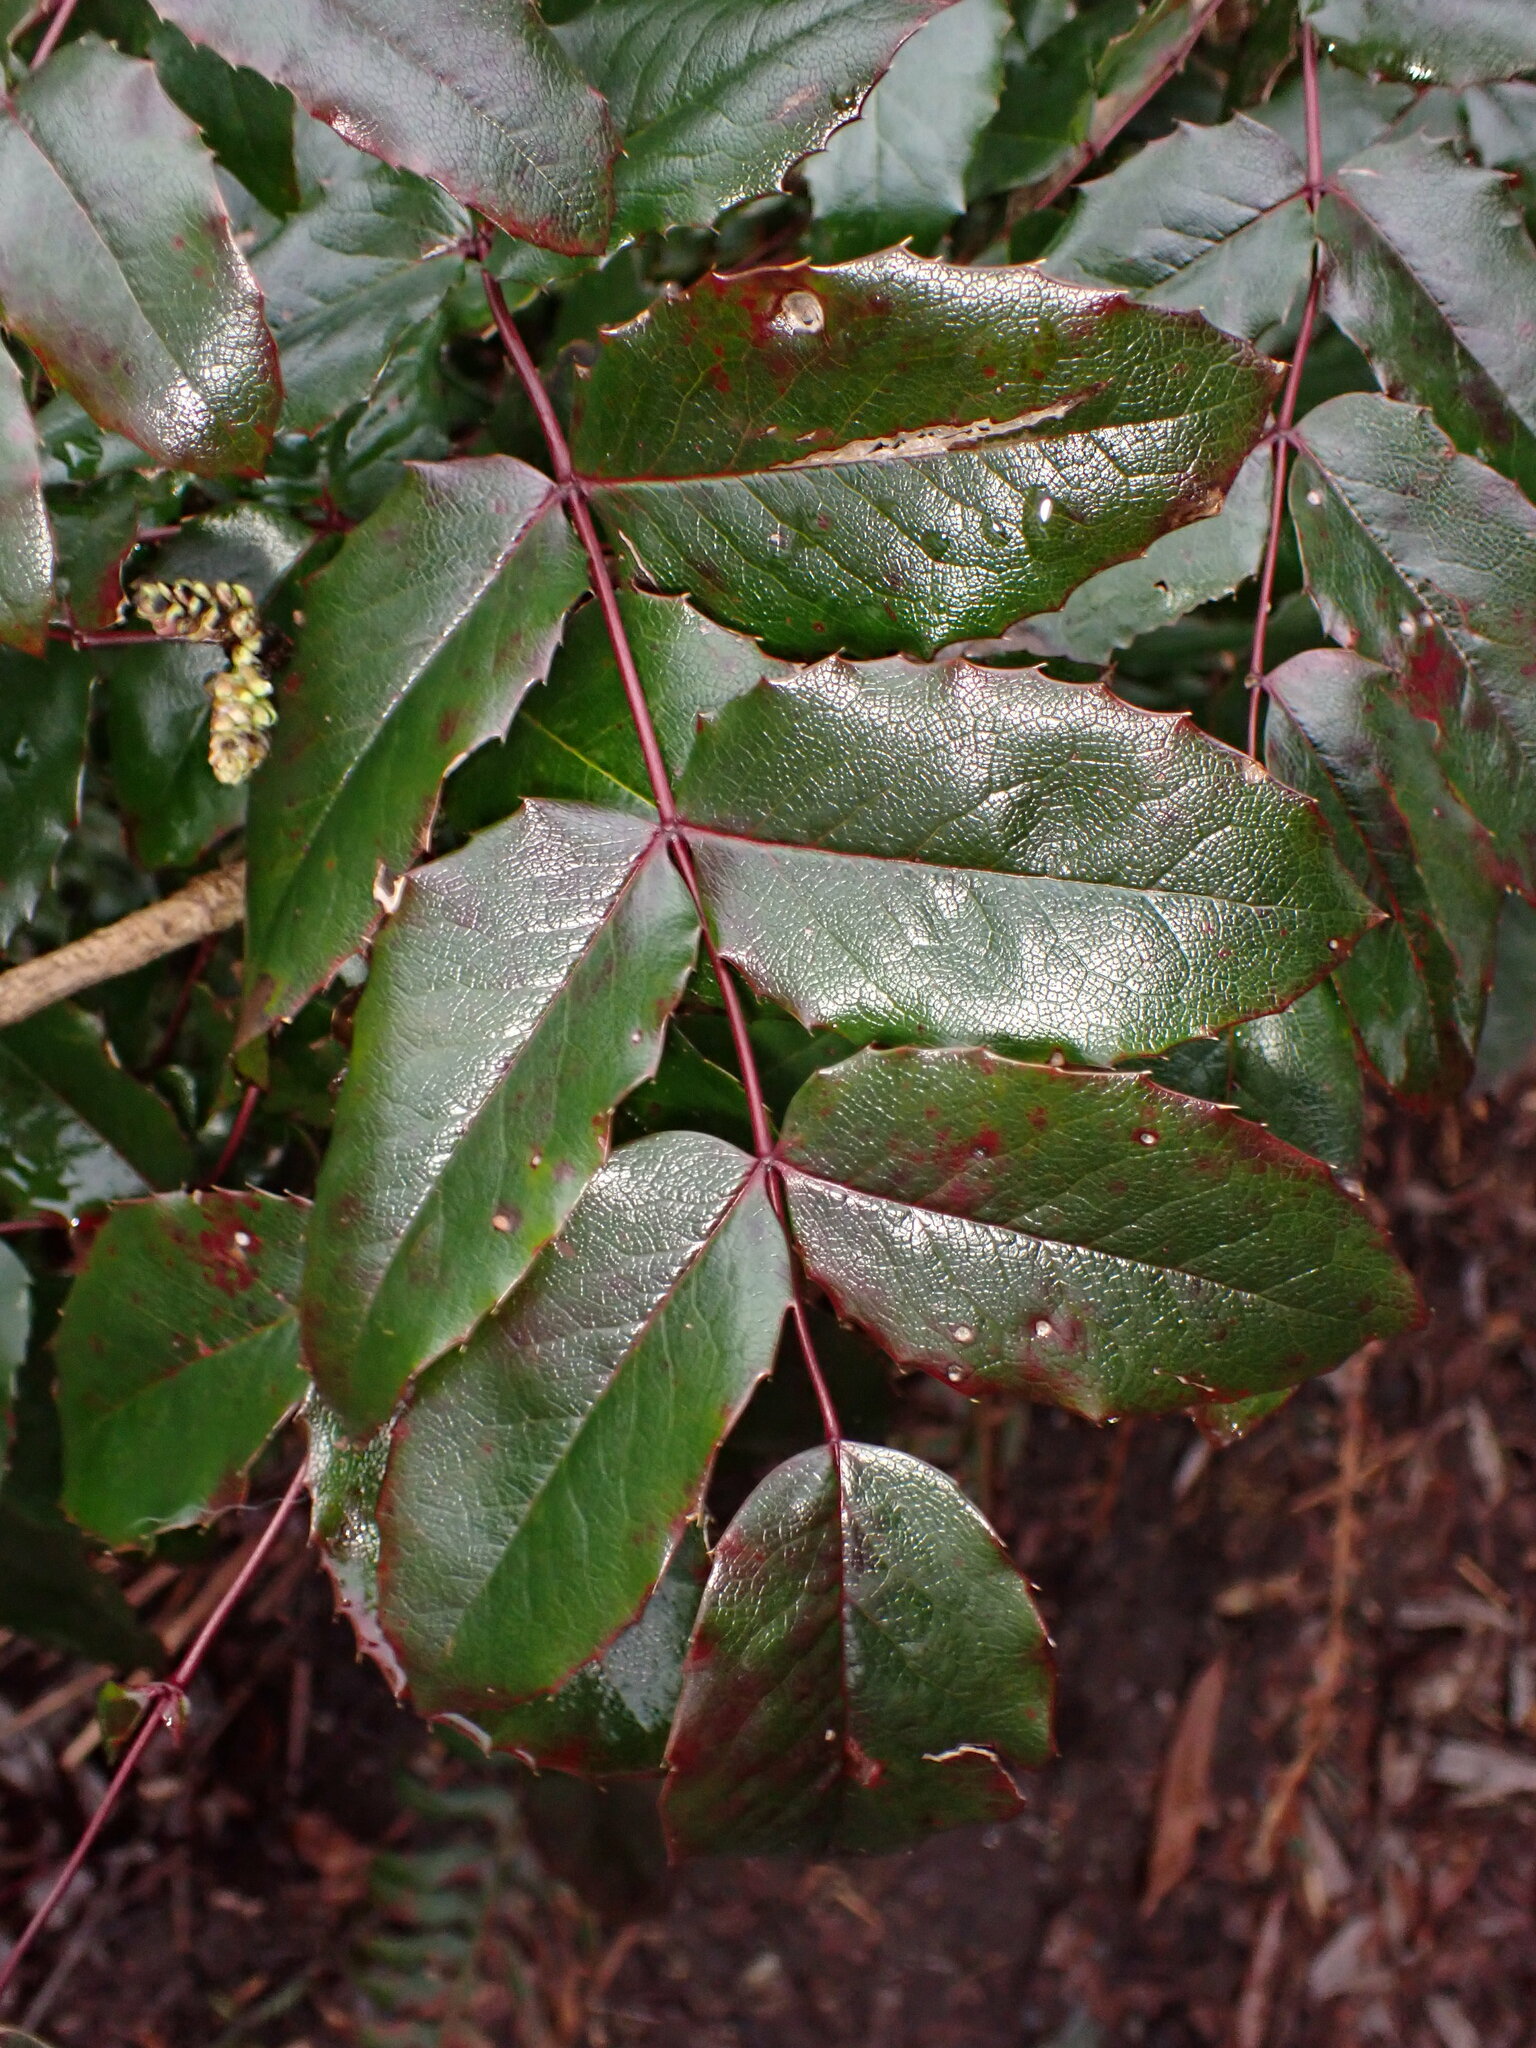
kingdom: Plantae
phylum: Tracheophyta
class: Magnoliopsida
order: Ranunculales
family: Berberidaceae
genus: Mahonia
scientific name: Mahonia aquifolium
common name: Oregon-grape
